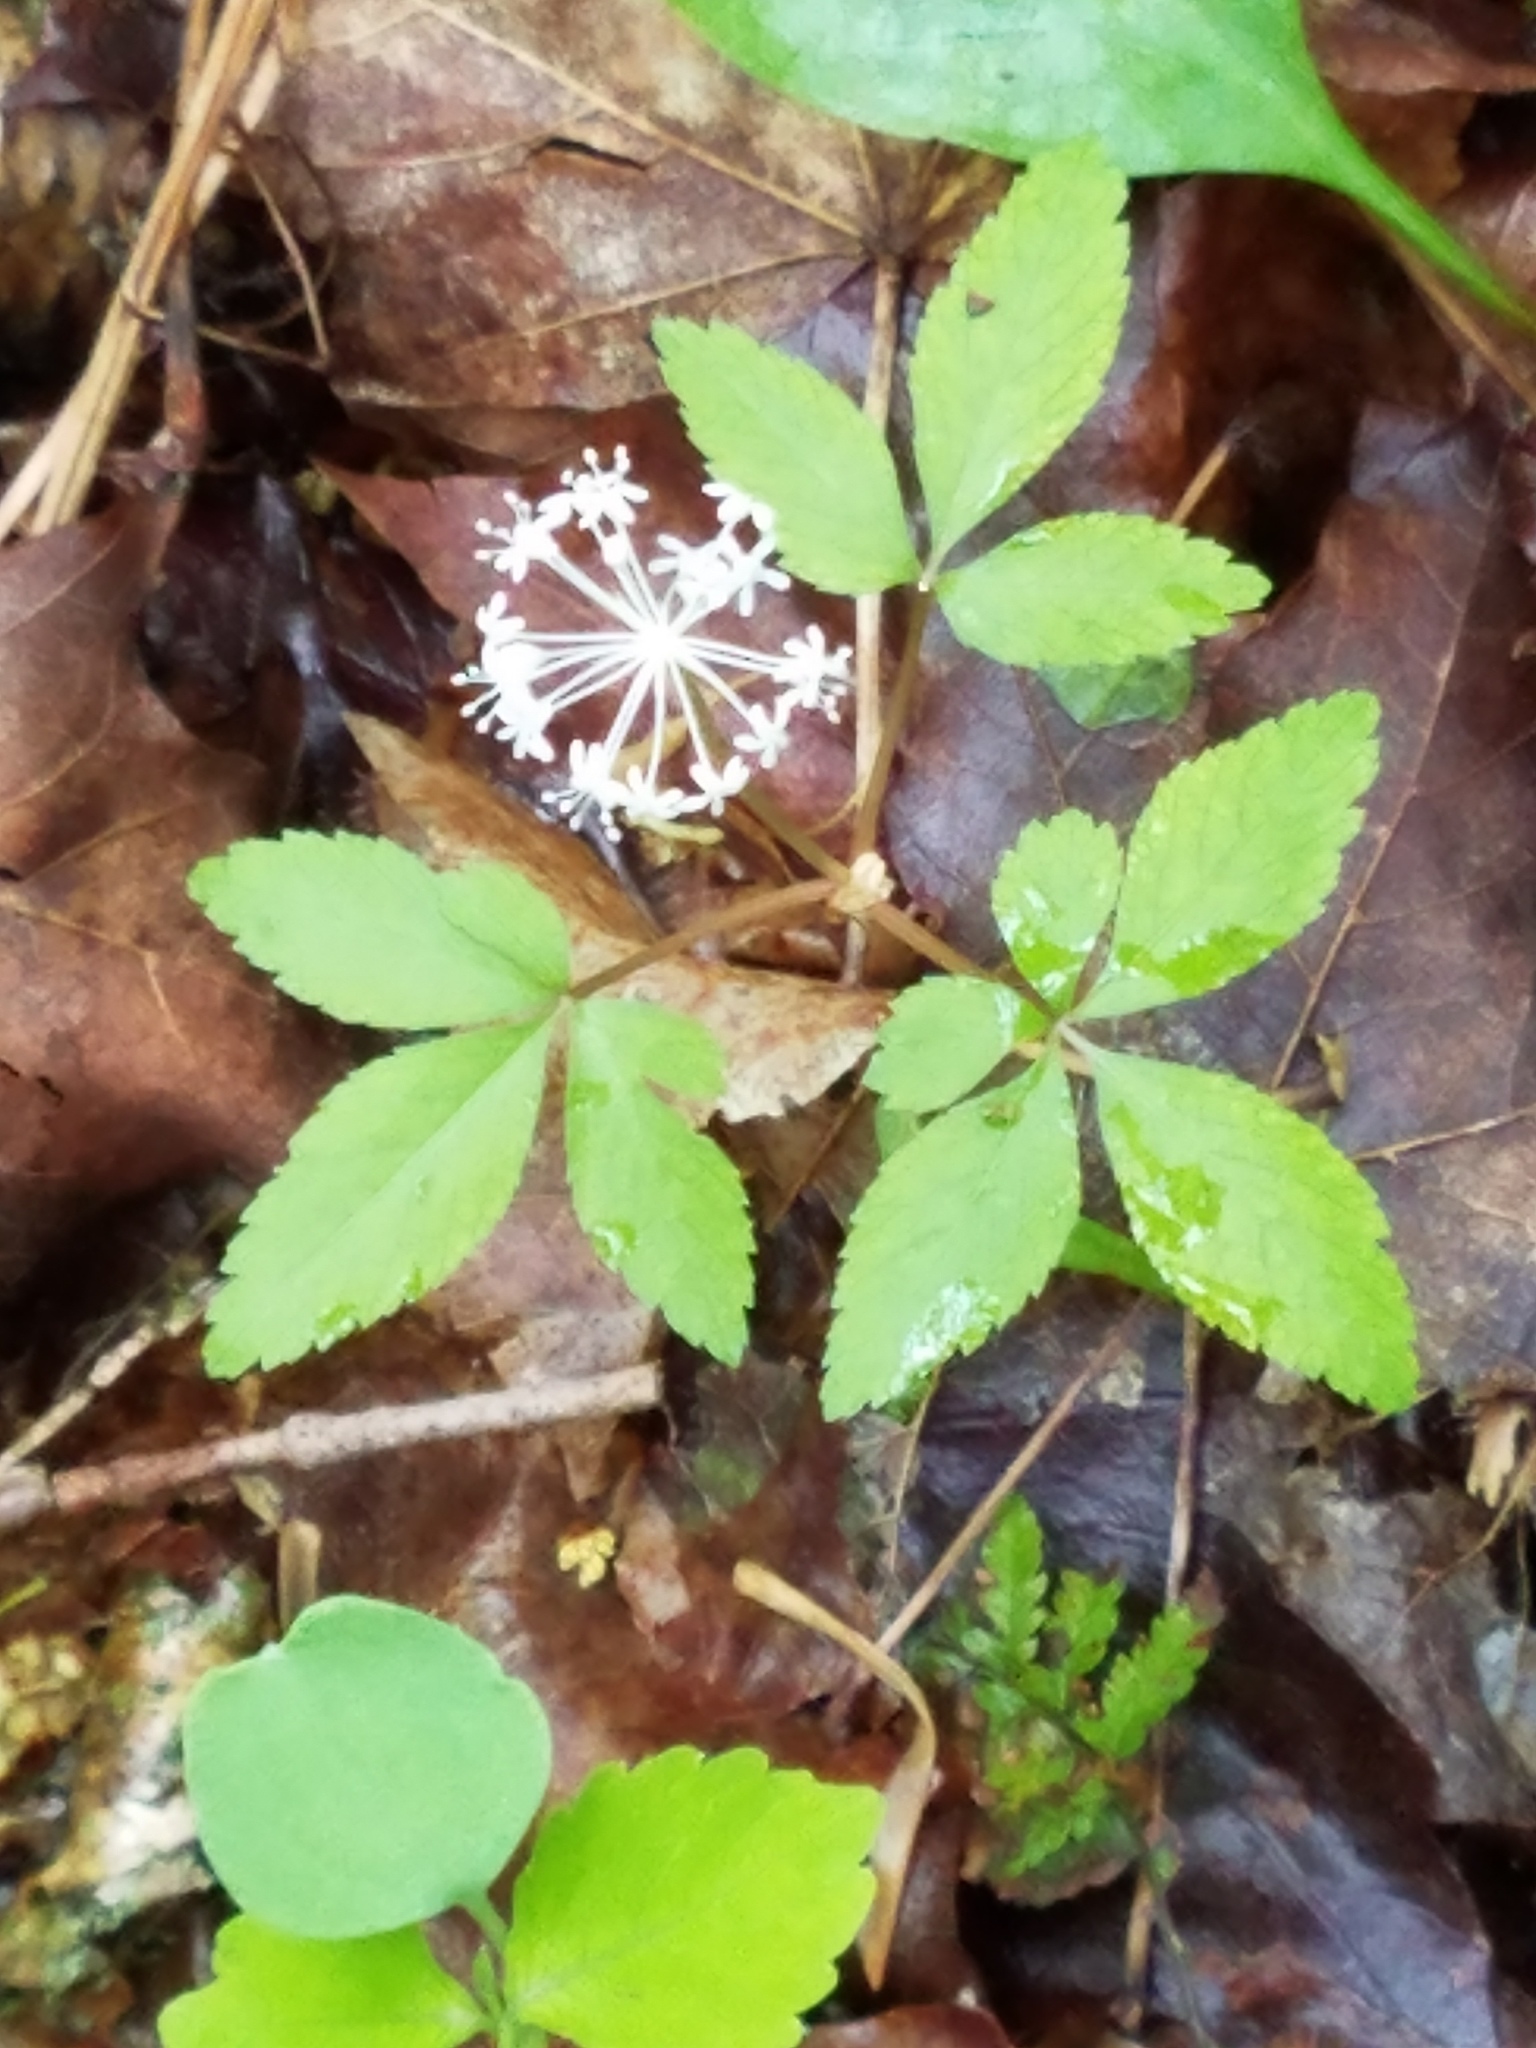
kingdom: Plantae
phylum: Tracheophyta
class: Magnoliopsida
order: Apiales
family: Araliaceae
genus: Panax
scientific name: Panax trifolius
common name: Dwarf ginseng
